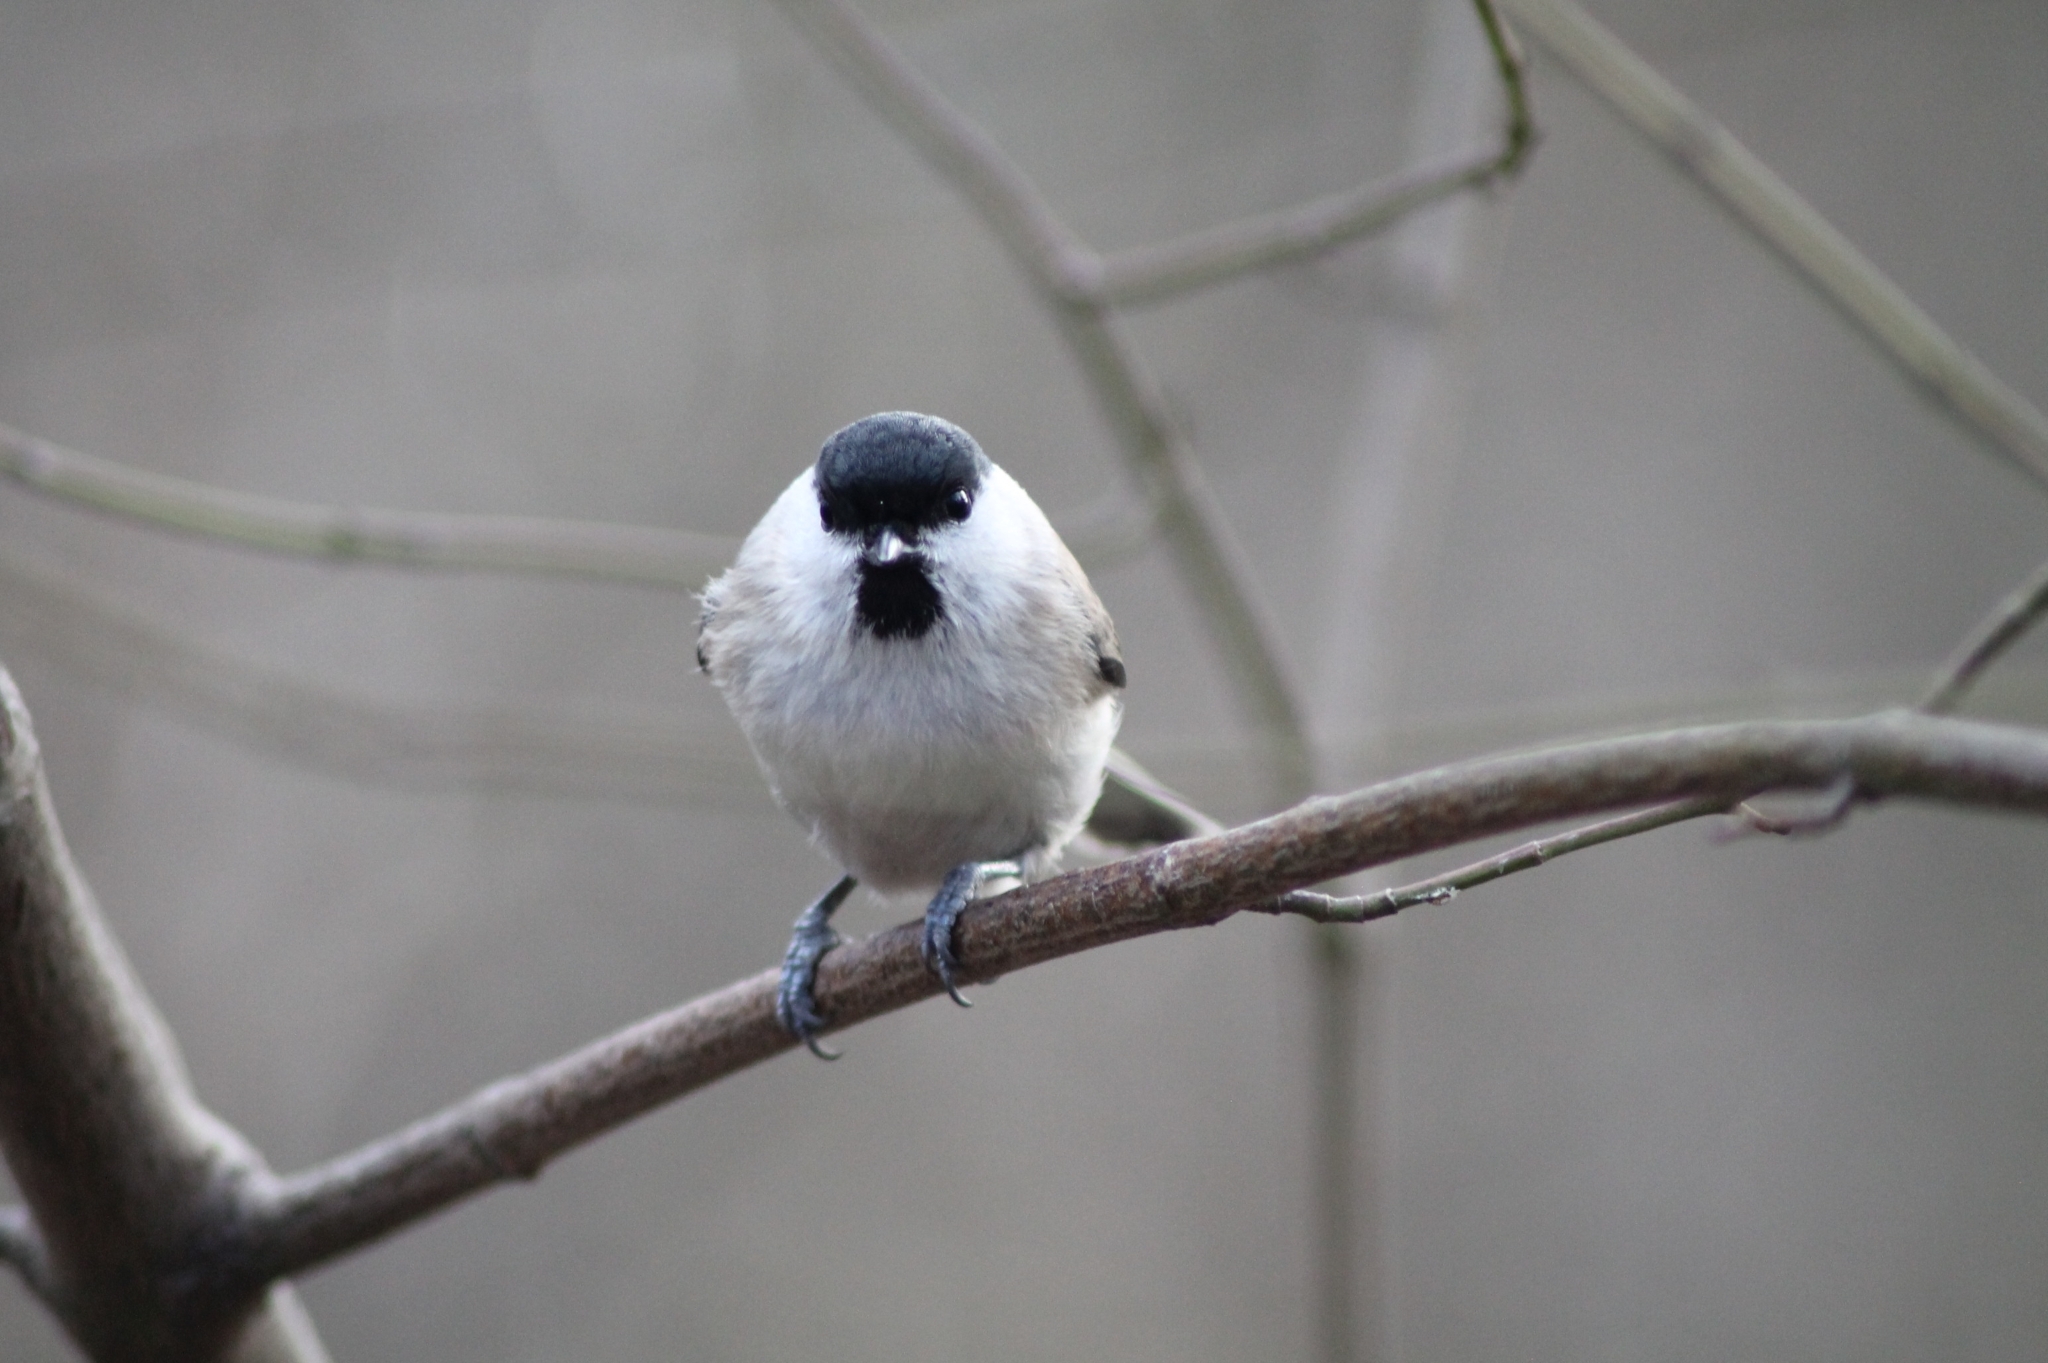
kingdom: Animalia
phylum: Chordata
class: Aves
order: Passeriformes
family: Paridae
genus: Poecile
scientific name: Poecile palustris
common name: Marsh tit
